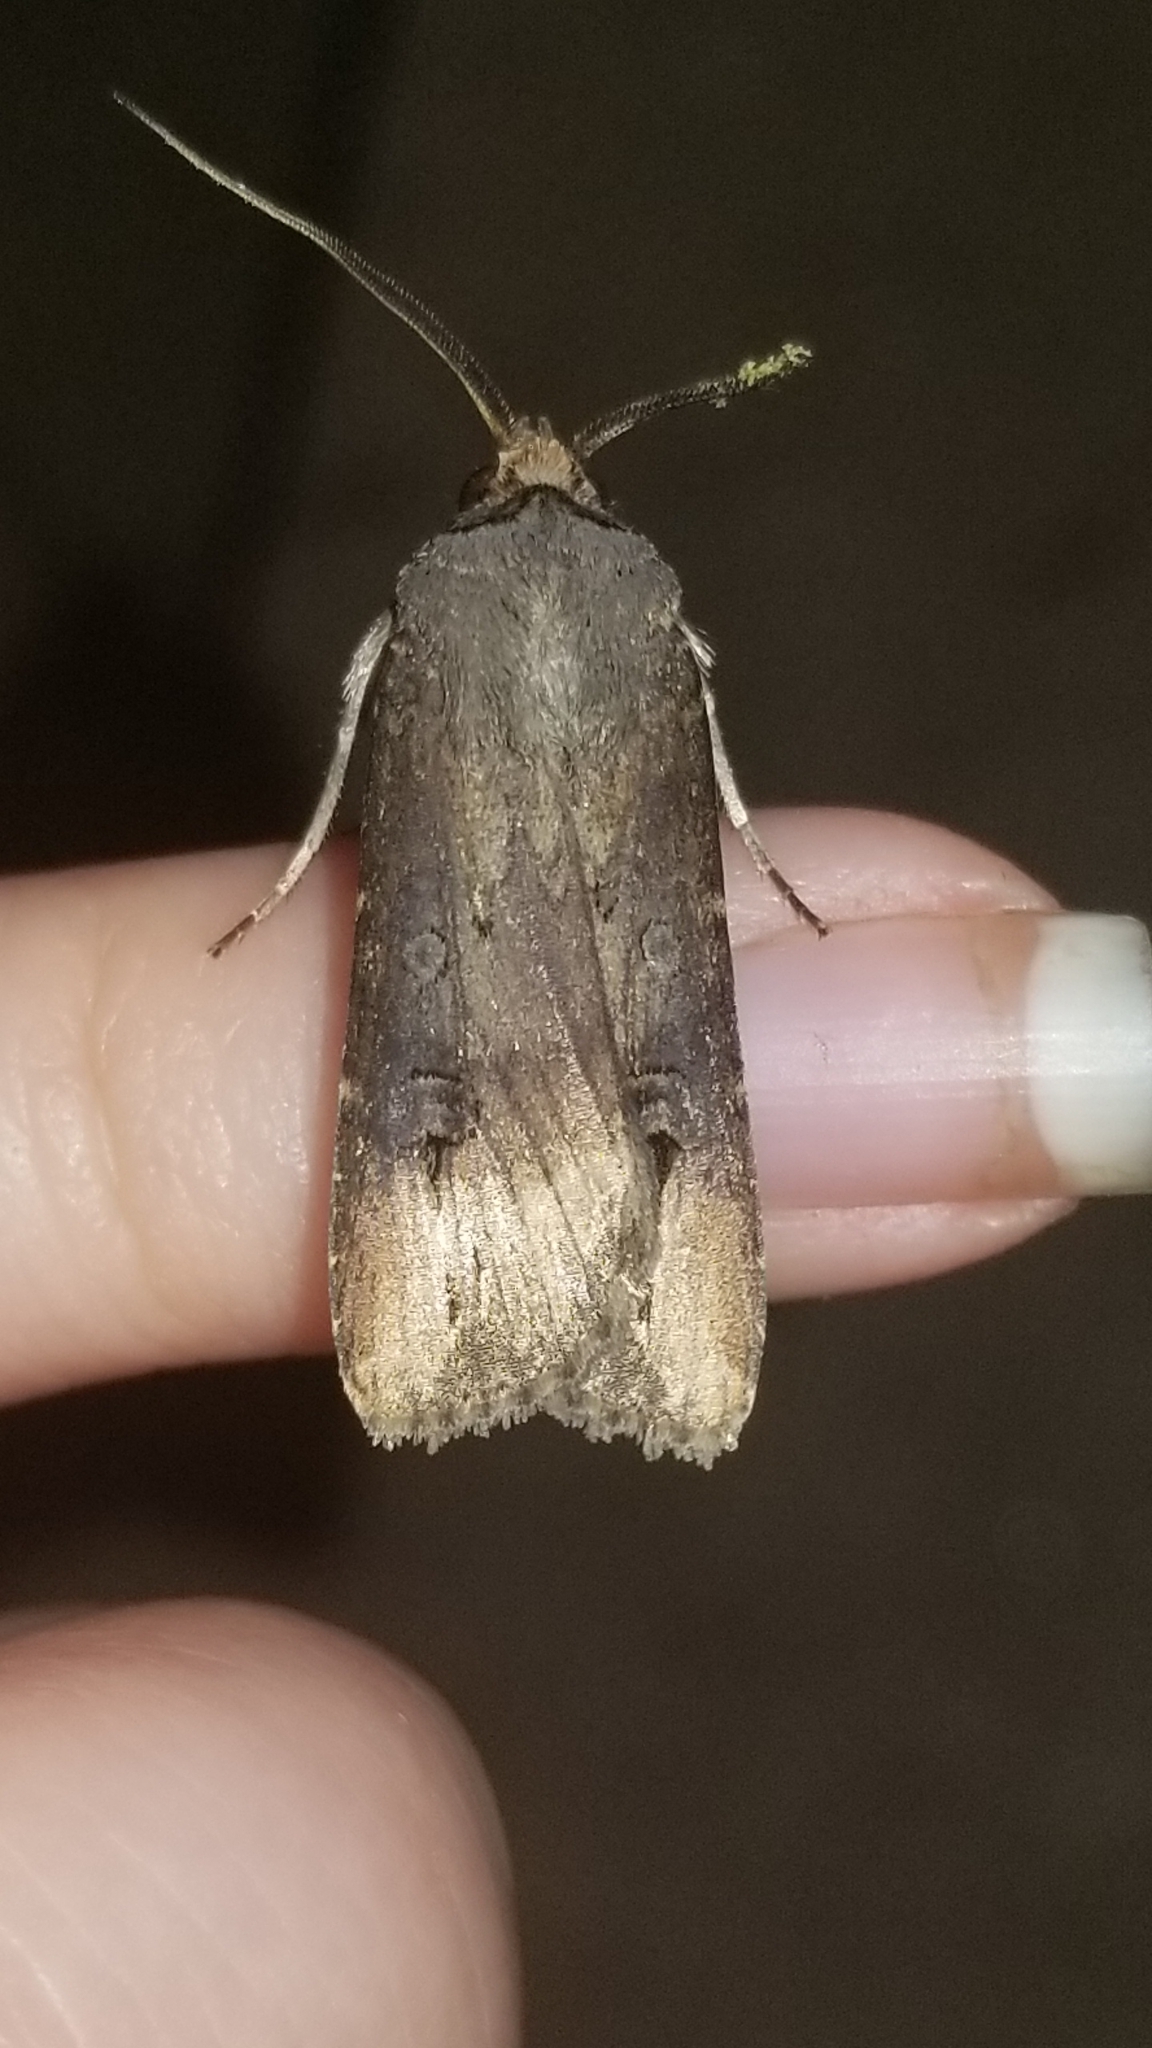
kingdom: Animalia
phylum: Arthropoda
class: Insecta
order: Lepidoptera
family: Noctuidae
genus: Agrotis
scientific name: Agrotis ipsilon
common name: Dark sword-grass
